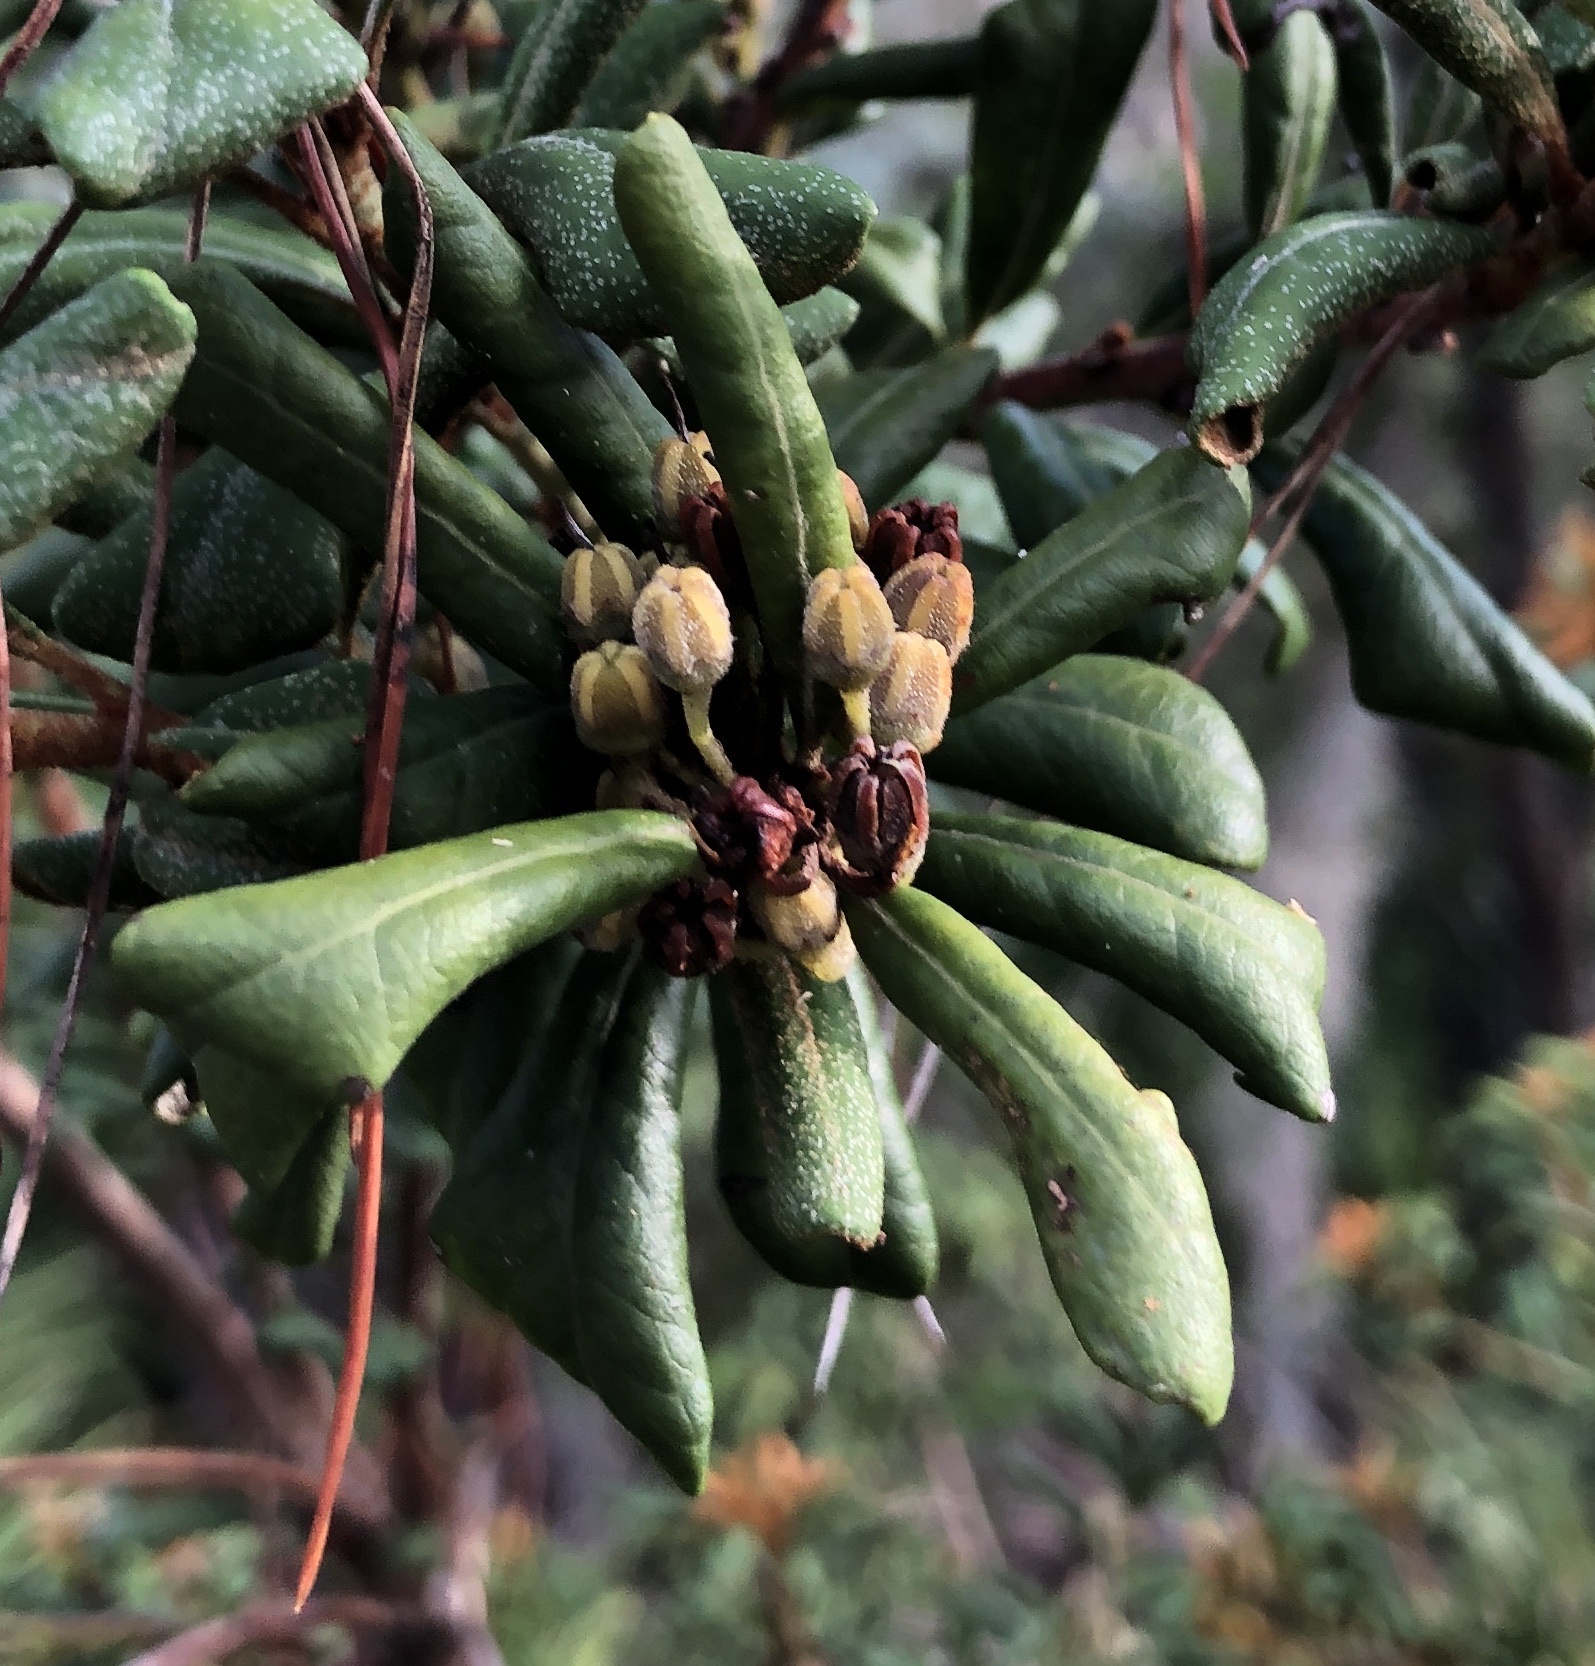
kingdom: Plantae
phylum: Tracheophyta
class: Magnoliopsida
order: Ericales
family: Ericaceae
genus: Lyonia
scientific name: Lyonia ferruginea
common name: Rusty lyonia
